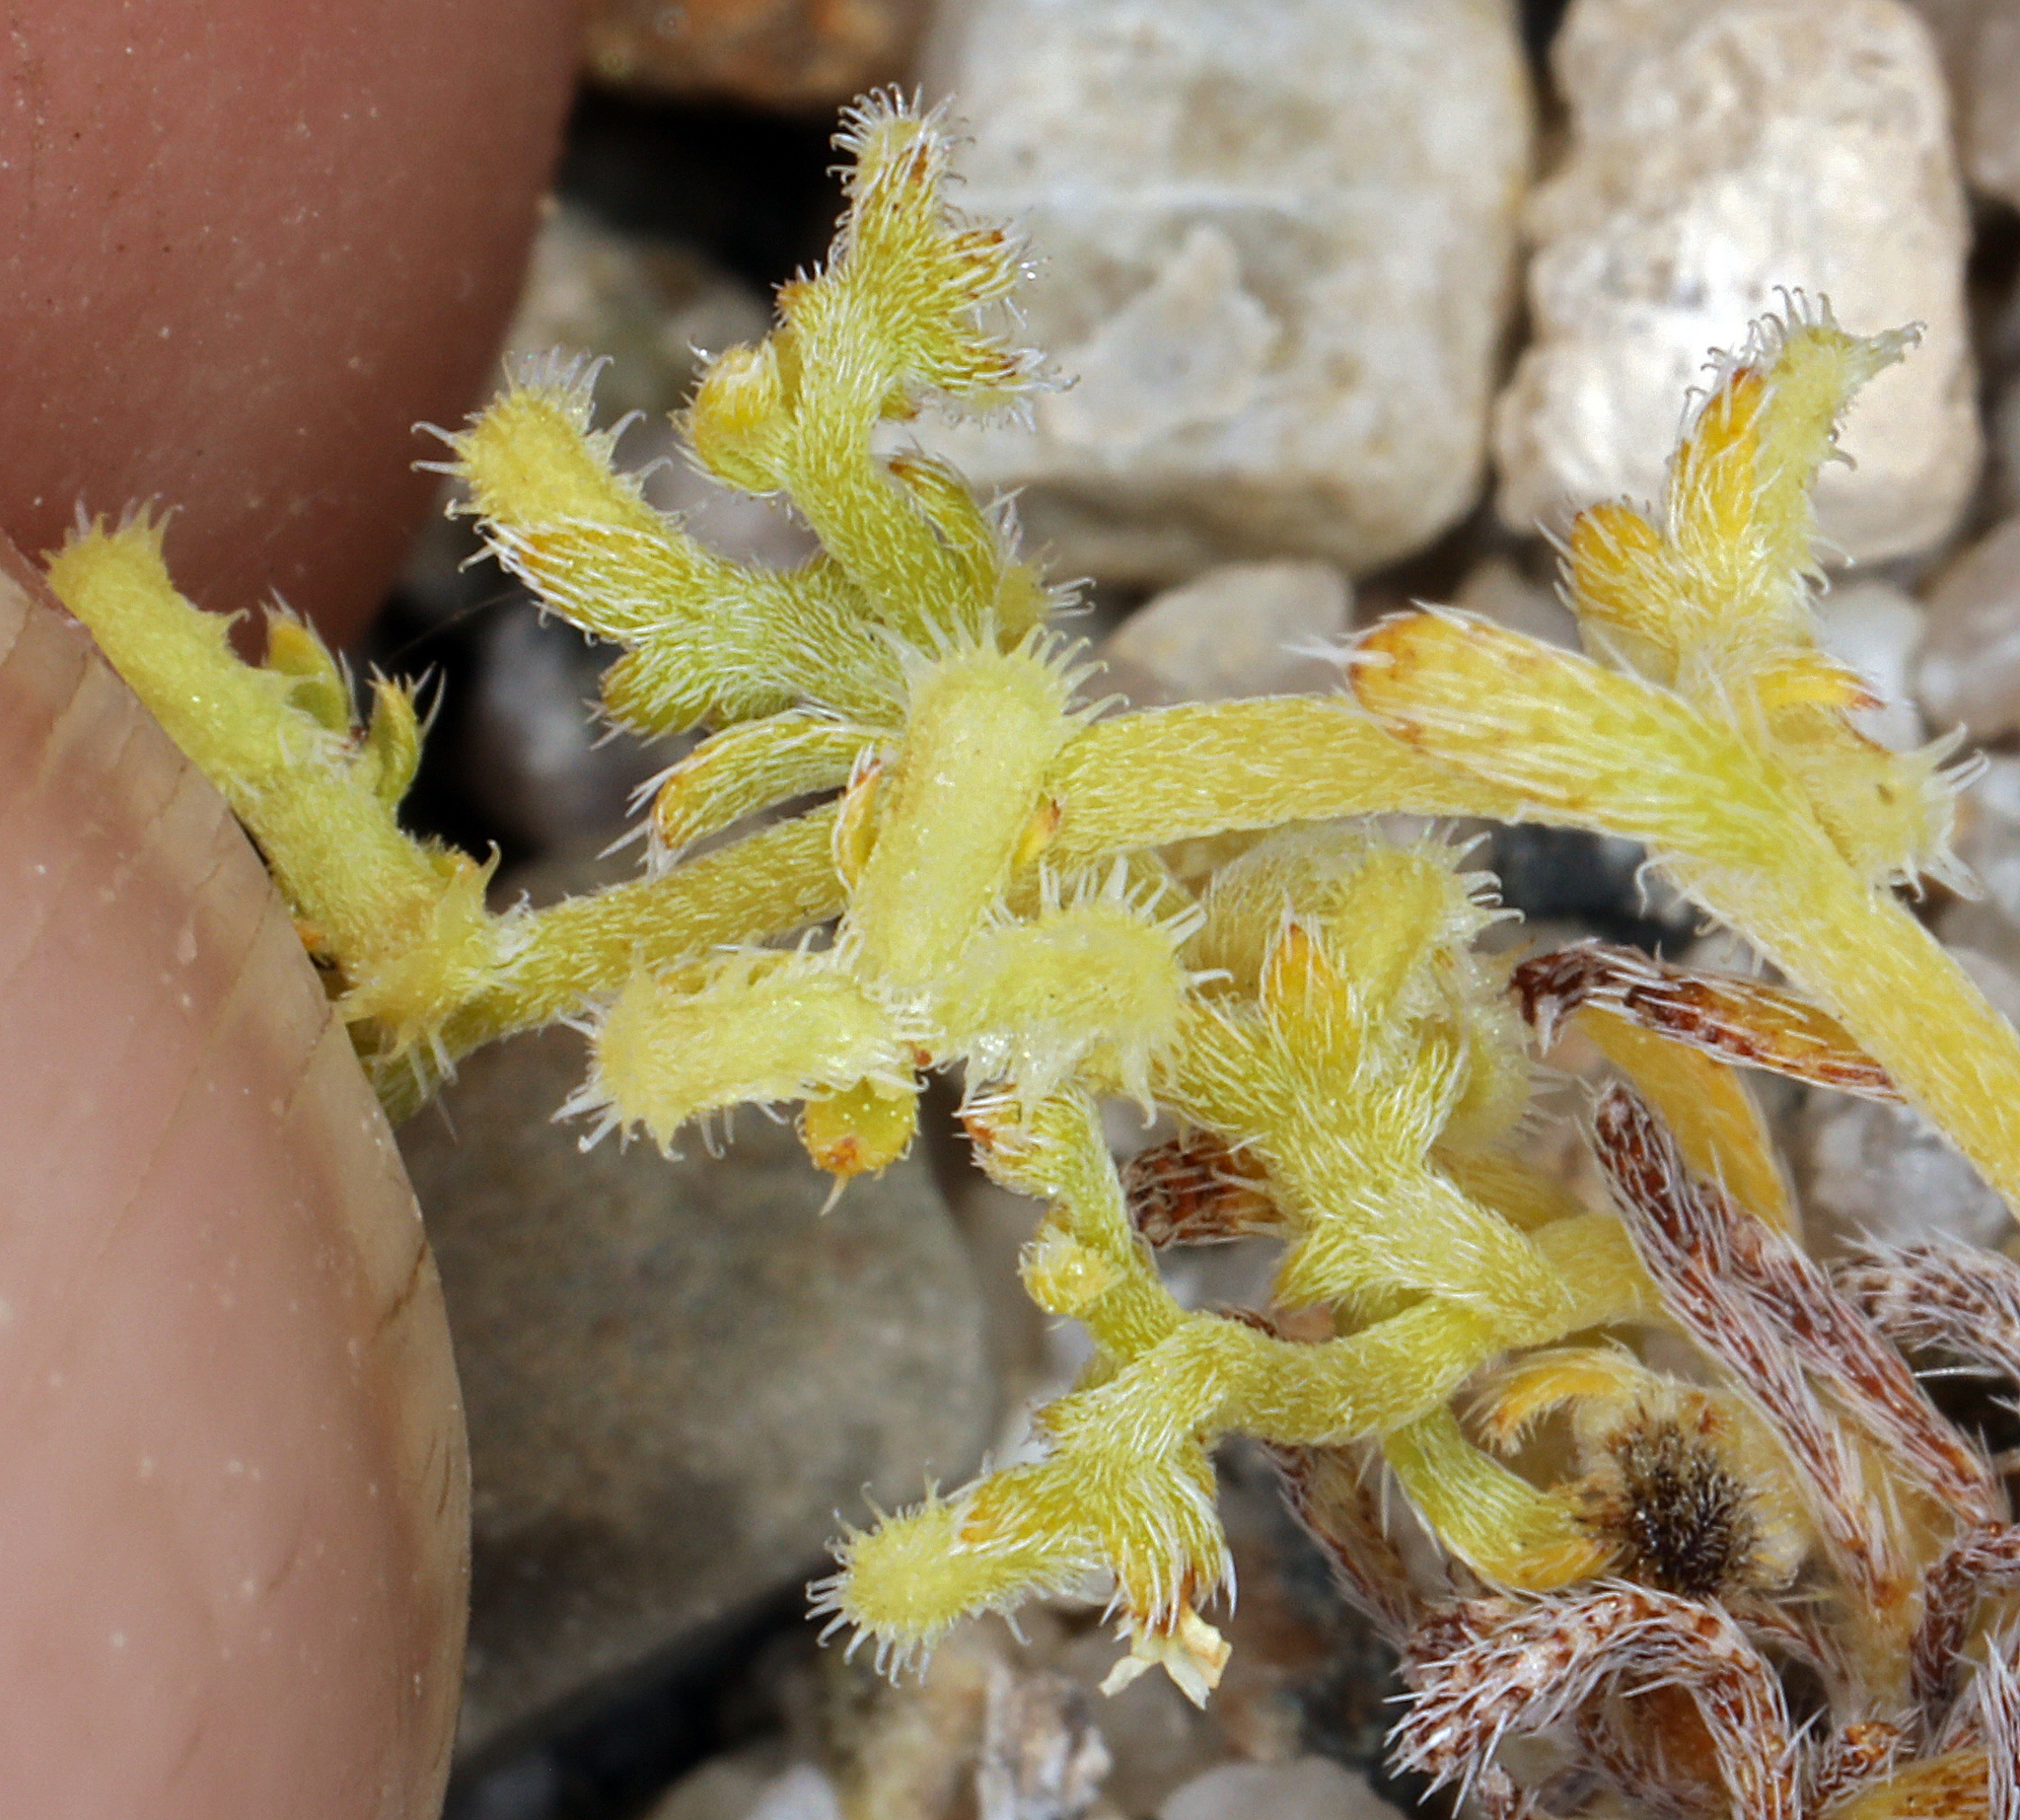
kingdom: Plantae
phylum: Tracheophyta
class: Magnoliopsida
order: Boraginales
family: Boraginaceae
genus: Pectocarya
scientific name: Pectocarya heterocarpa
